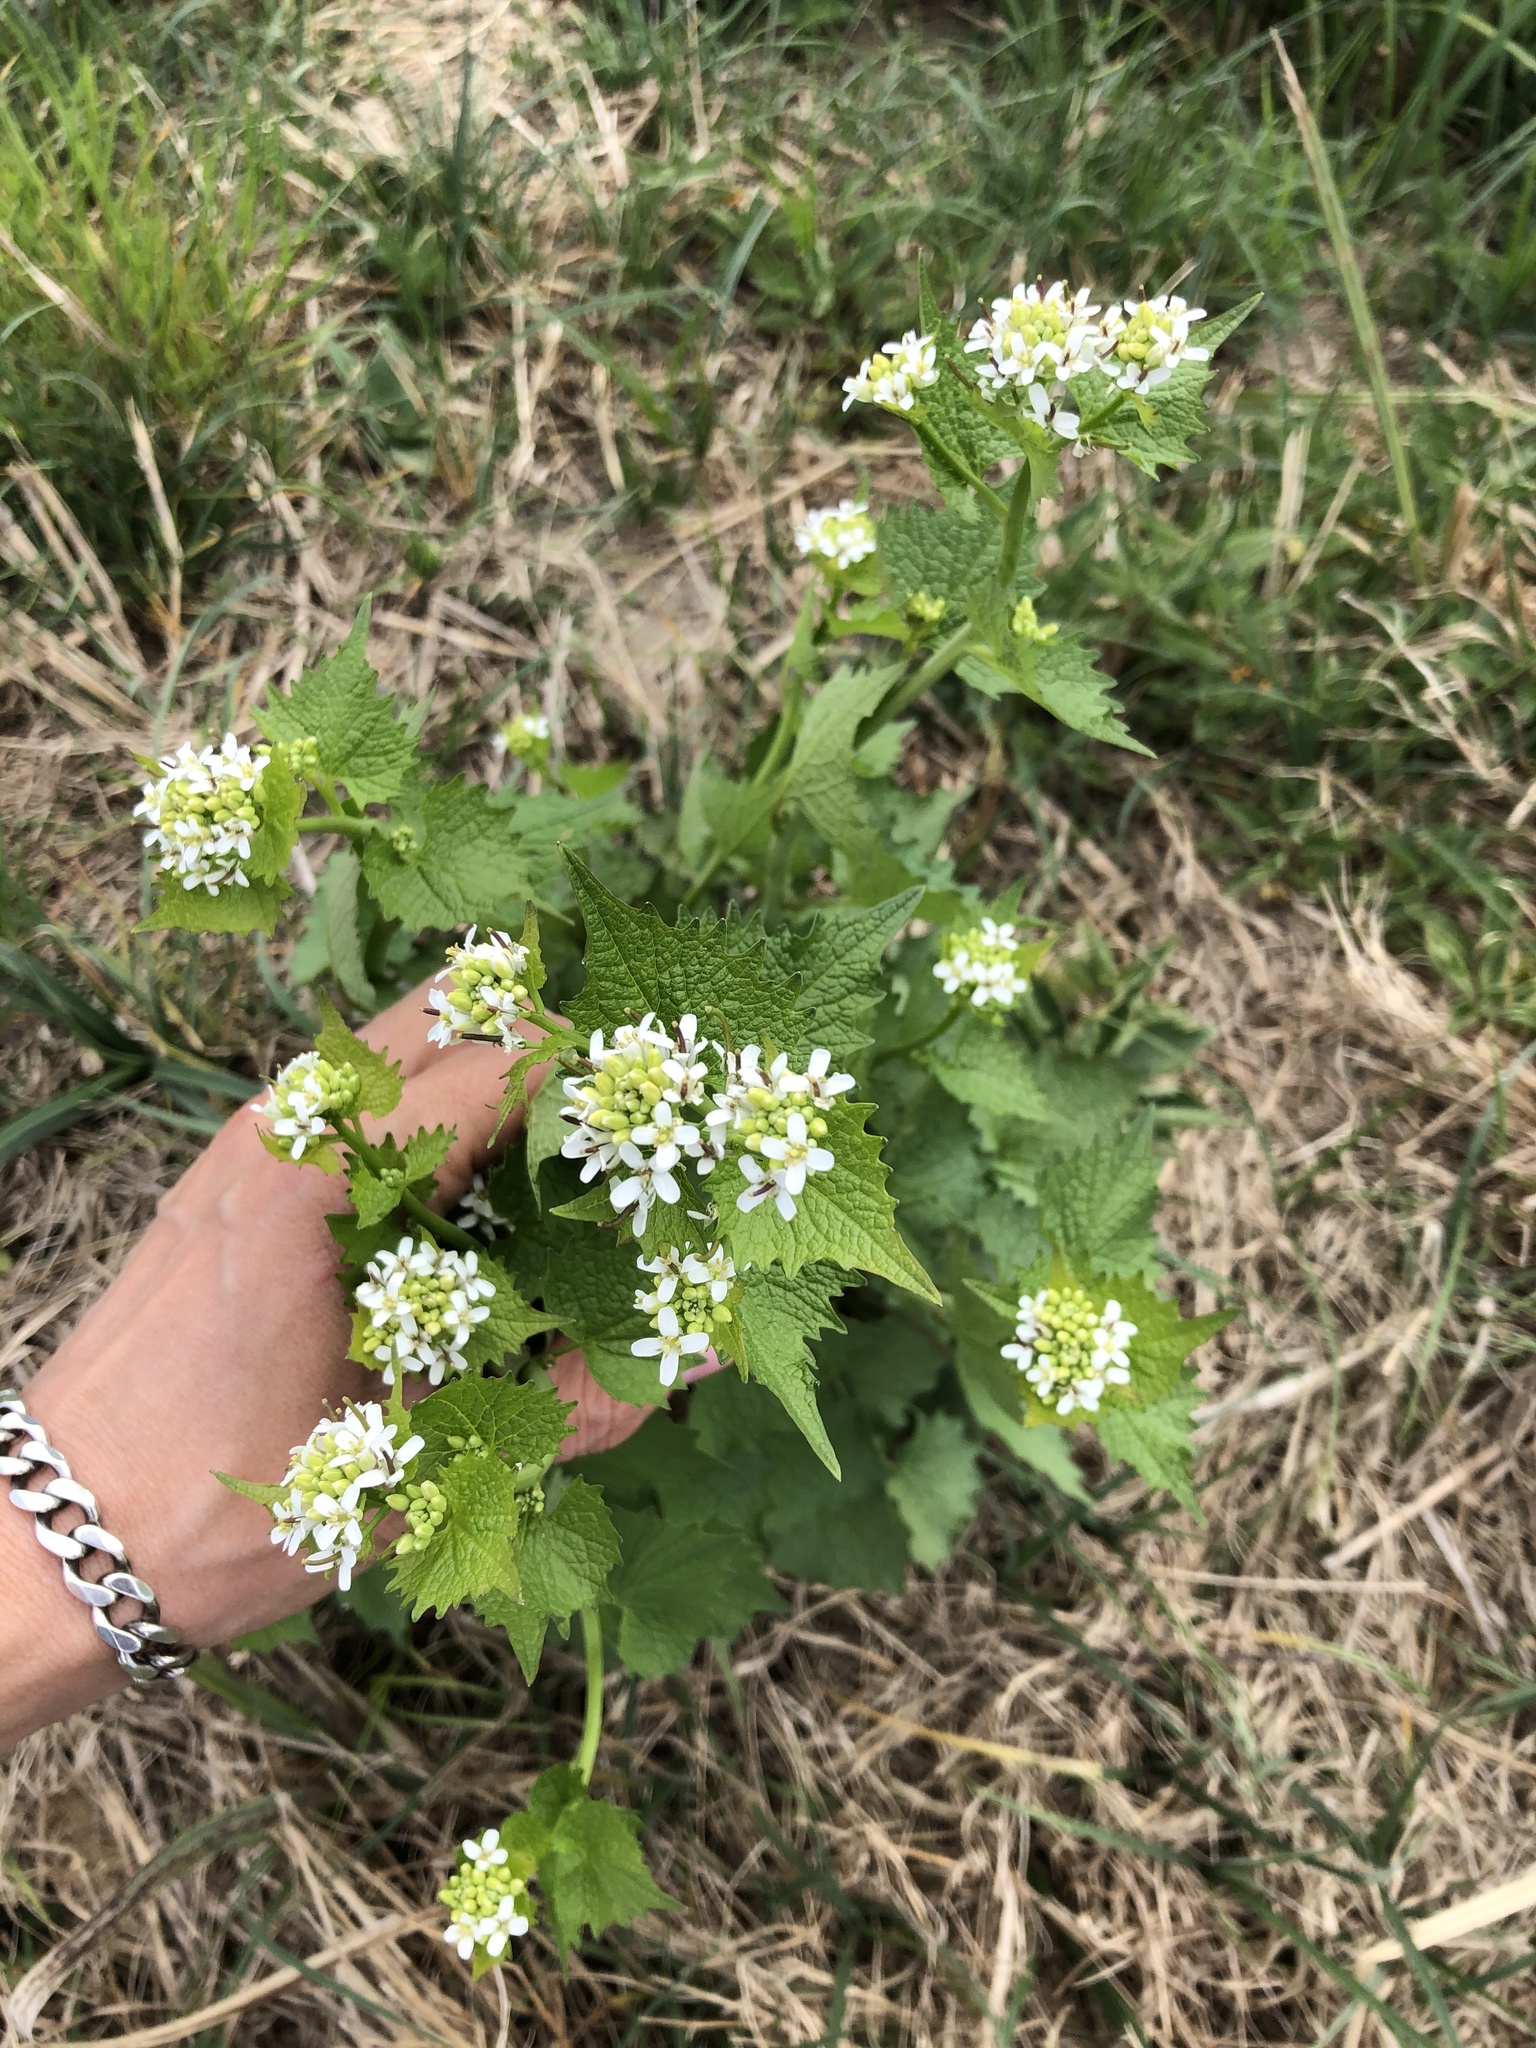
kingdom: Plantae
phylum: Tracheophyta
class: Magnoliopsida
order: Brassicales
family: Brassicaceae
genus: Alliaria
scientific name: Alliaria petiolata
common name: Garlic mustard
